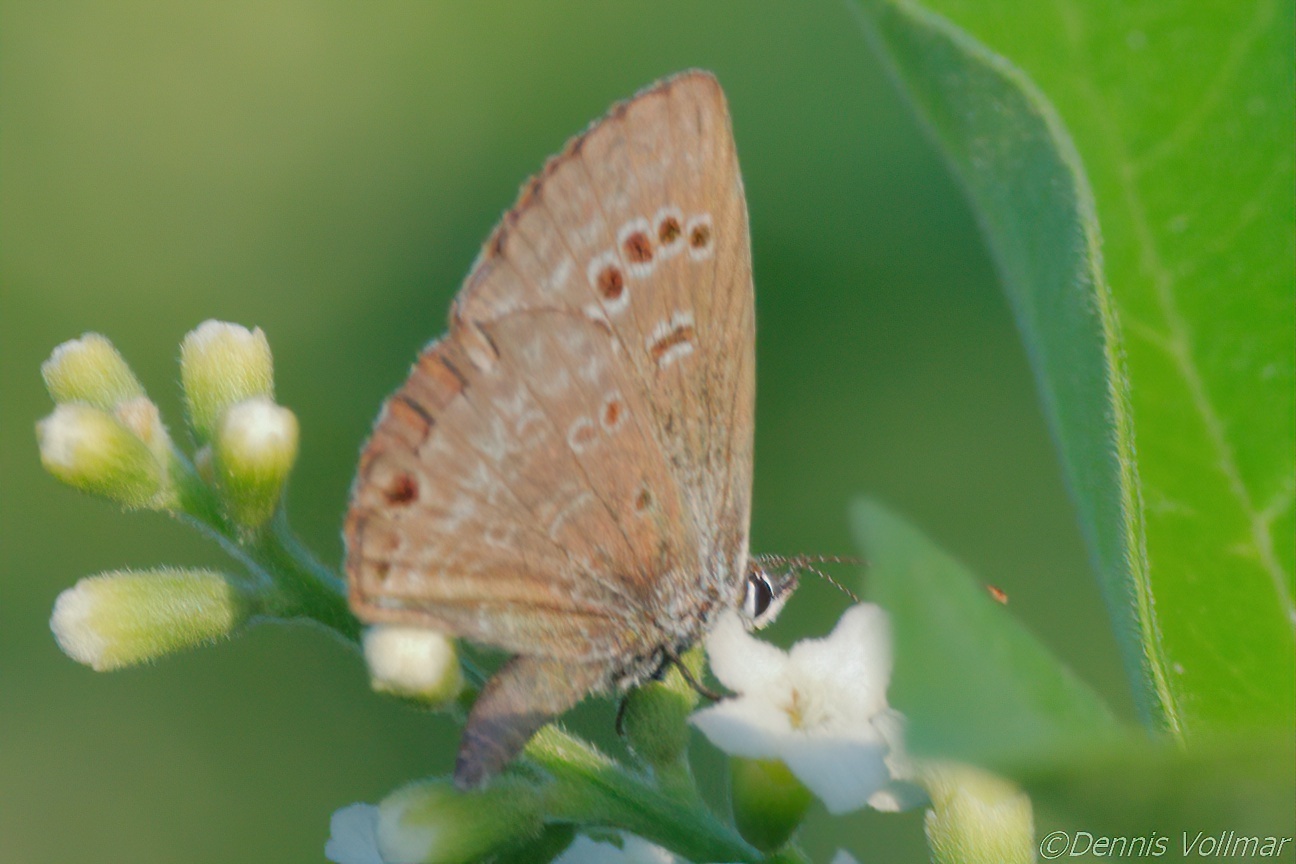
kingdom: Animalia
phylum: Arthropoda
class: Insecta
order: Lepidoptera
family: Lycaenidae
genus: Echinargus
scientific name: Echinargus isola
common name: Reakirt's blue
